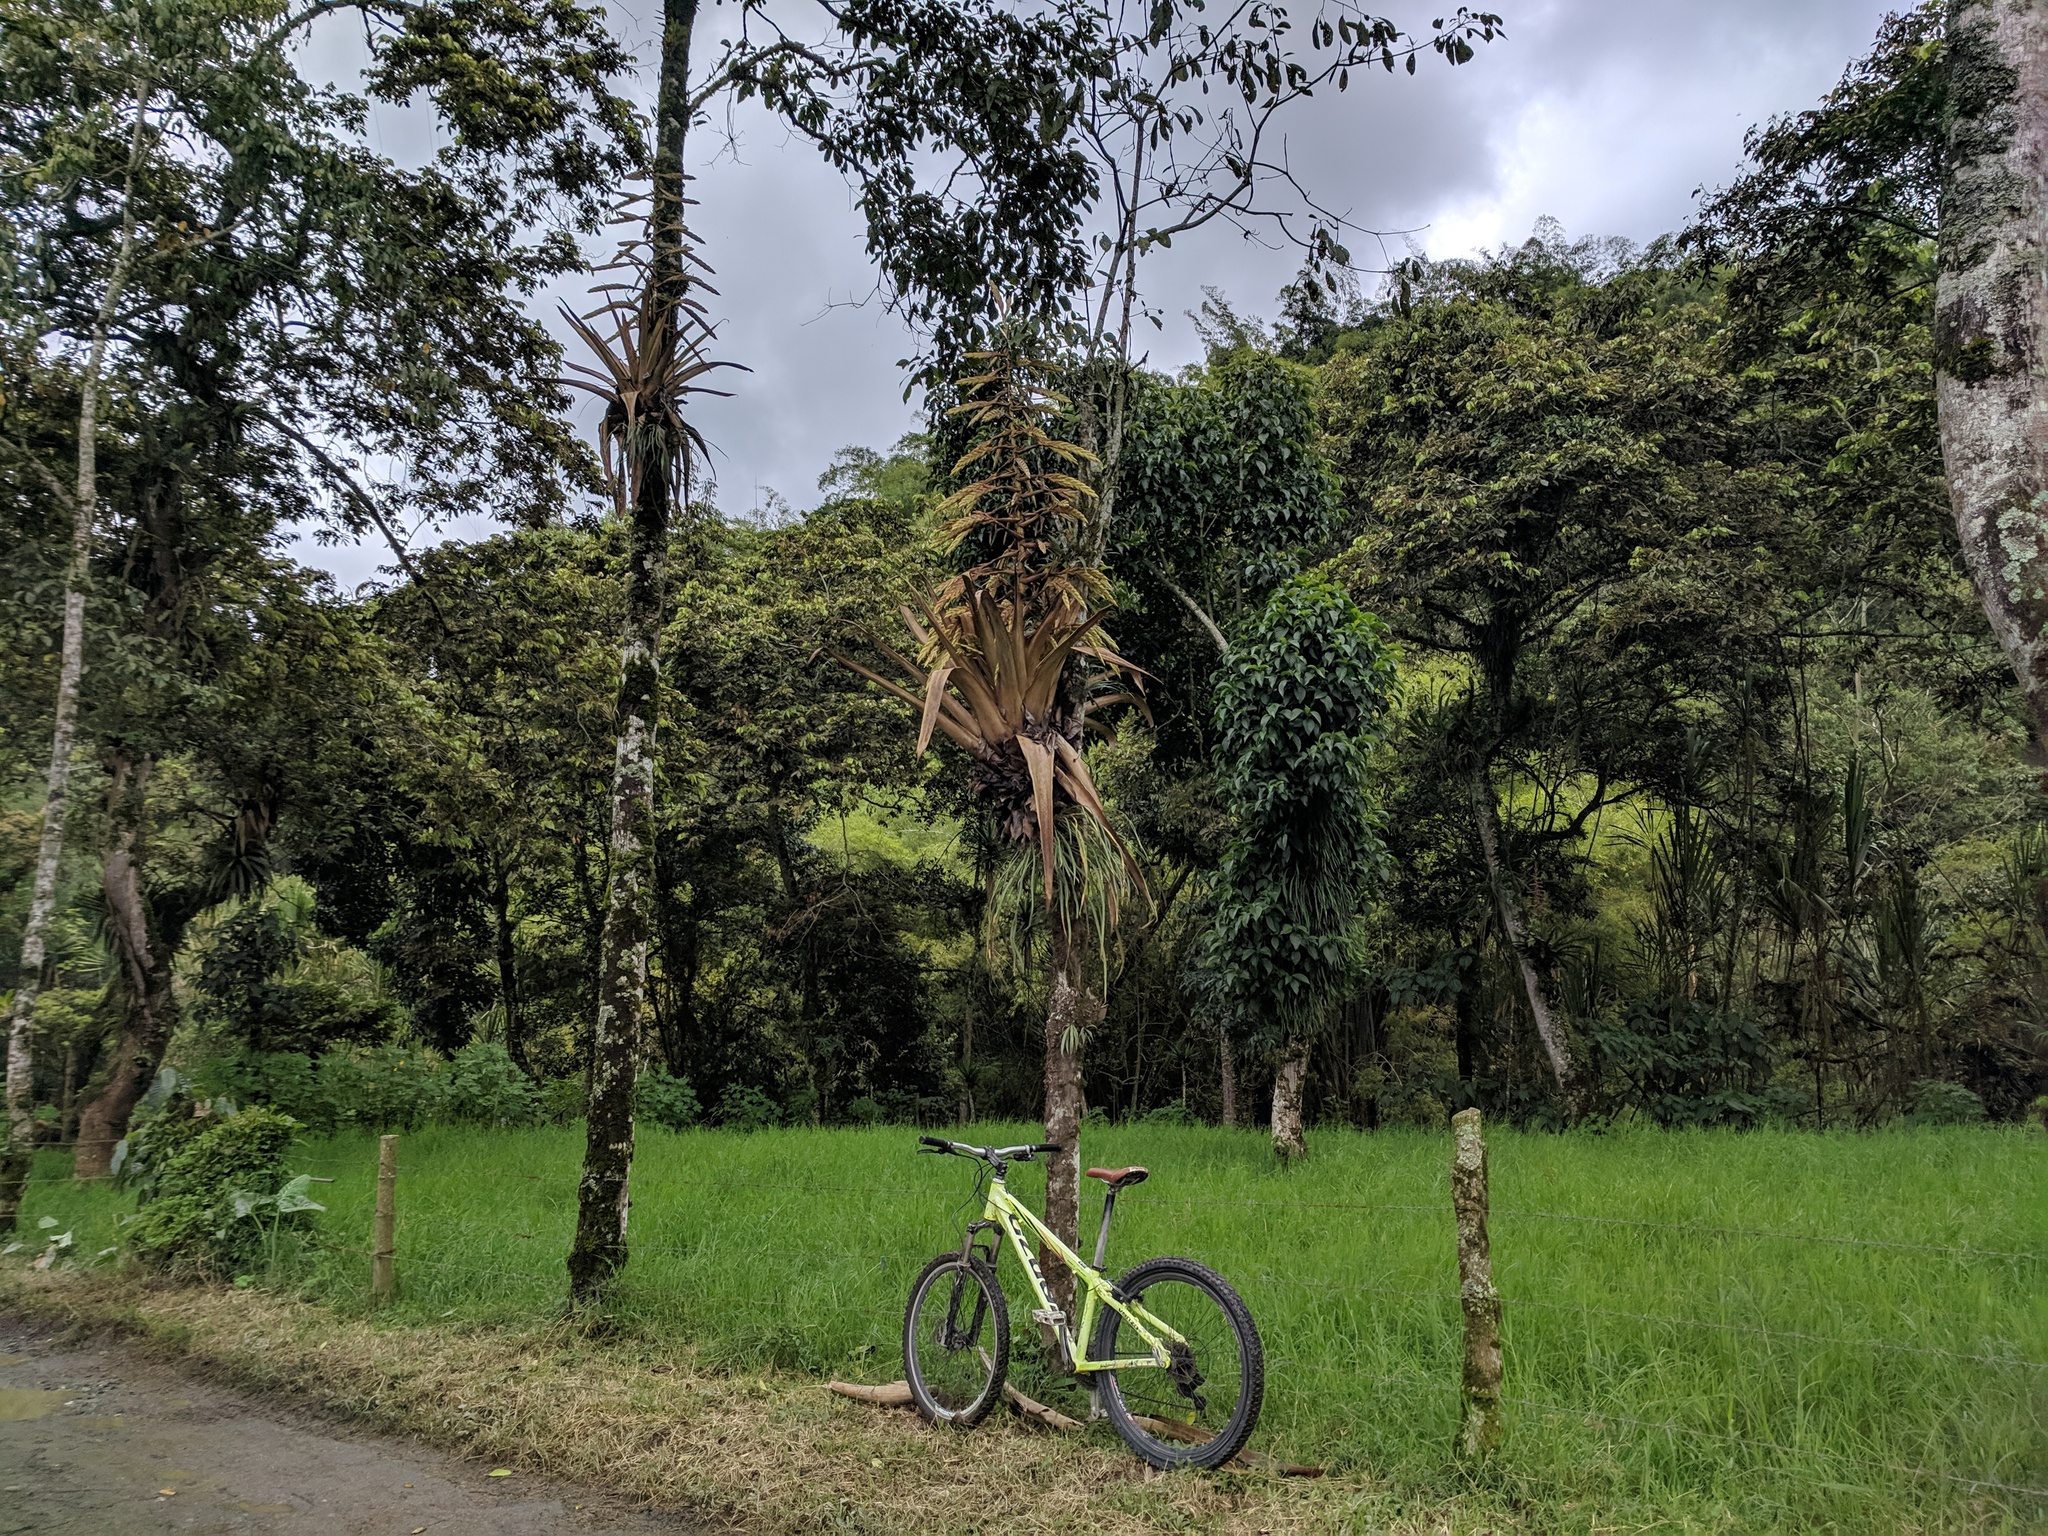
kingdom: Plantae
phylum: Tracheophyta
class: Liliopsida
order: Poales
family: Bromeliaceae
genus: Tillandsia
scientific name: Tillandsia fendleri
